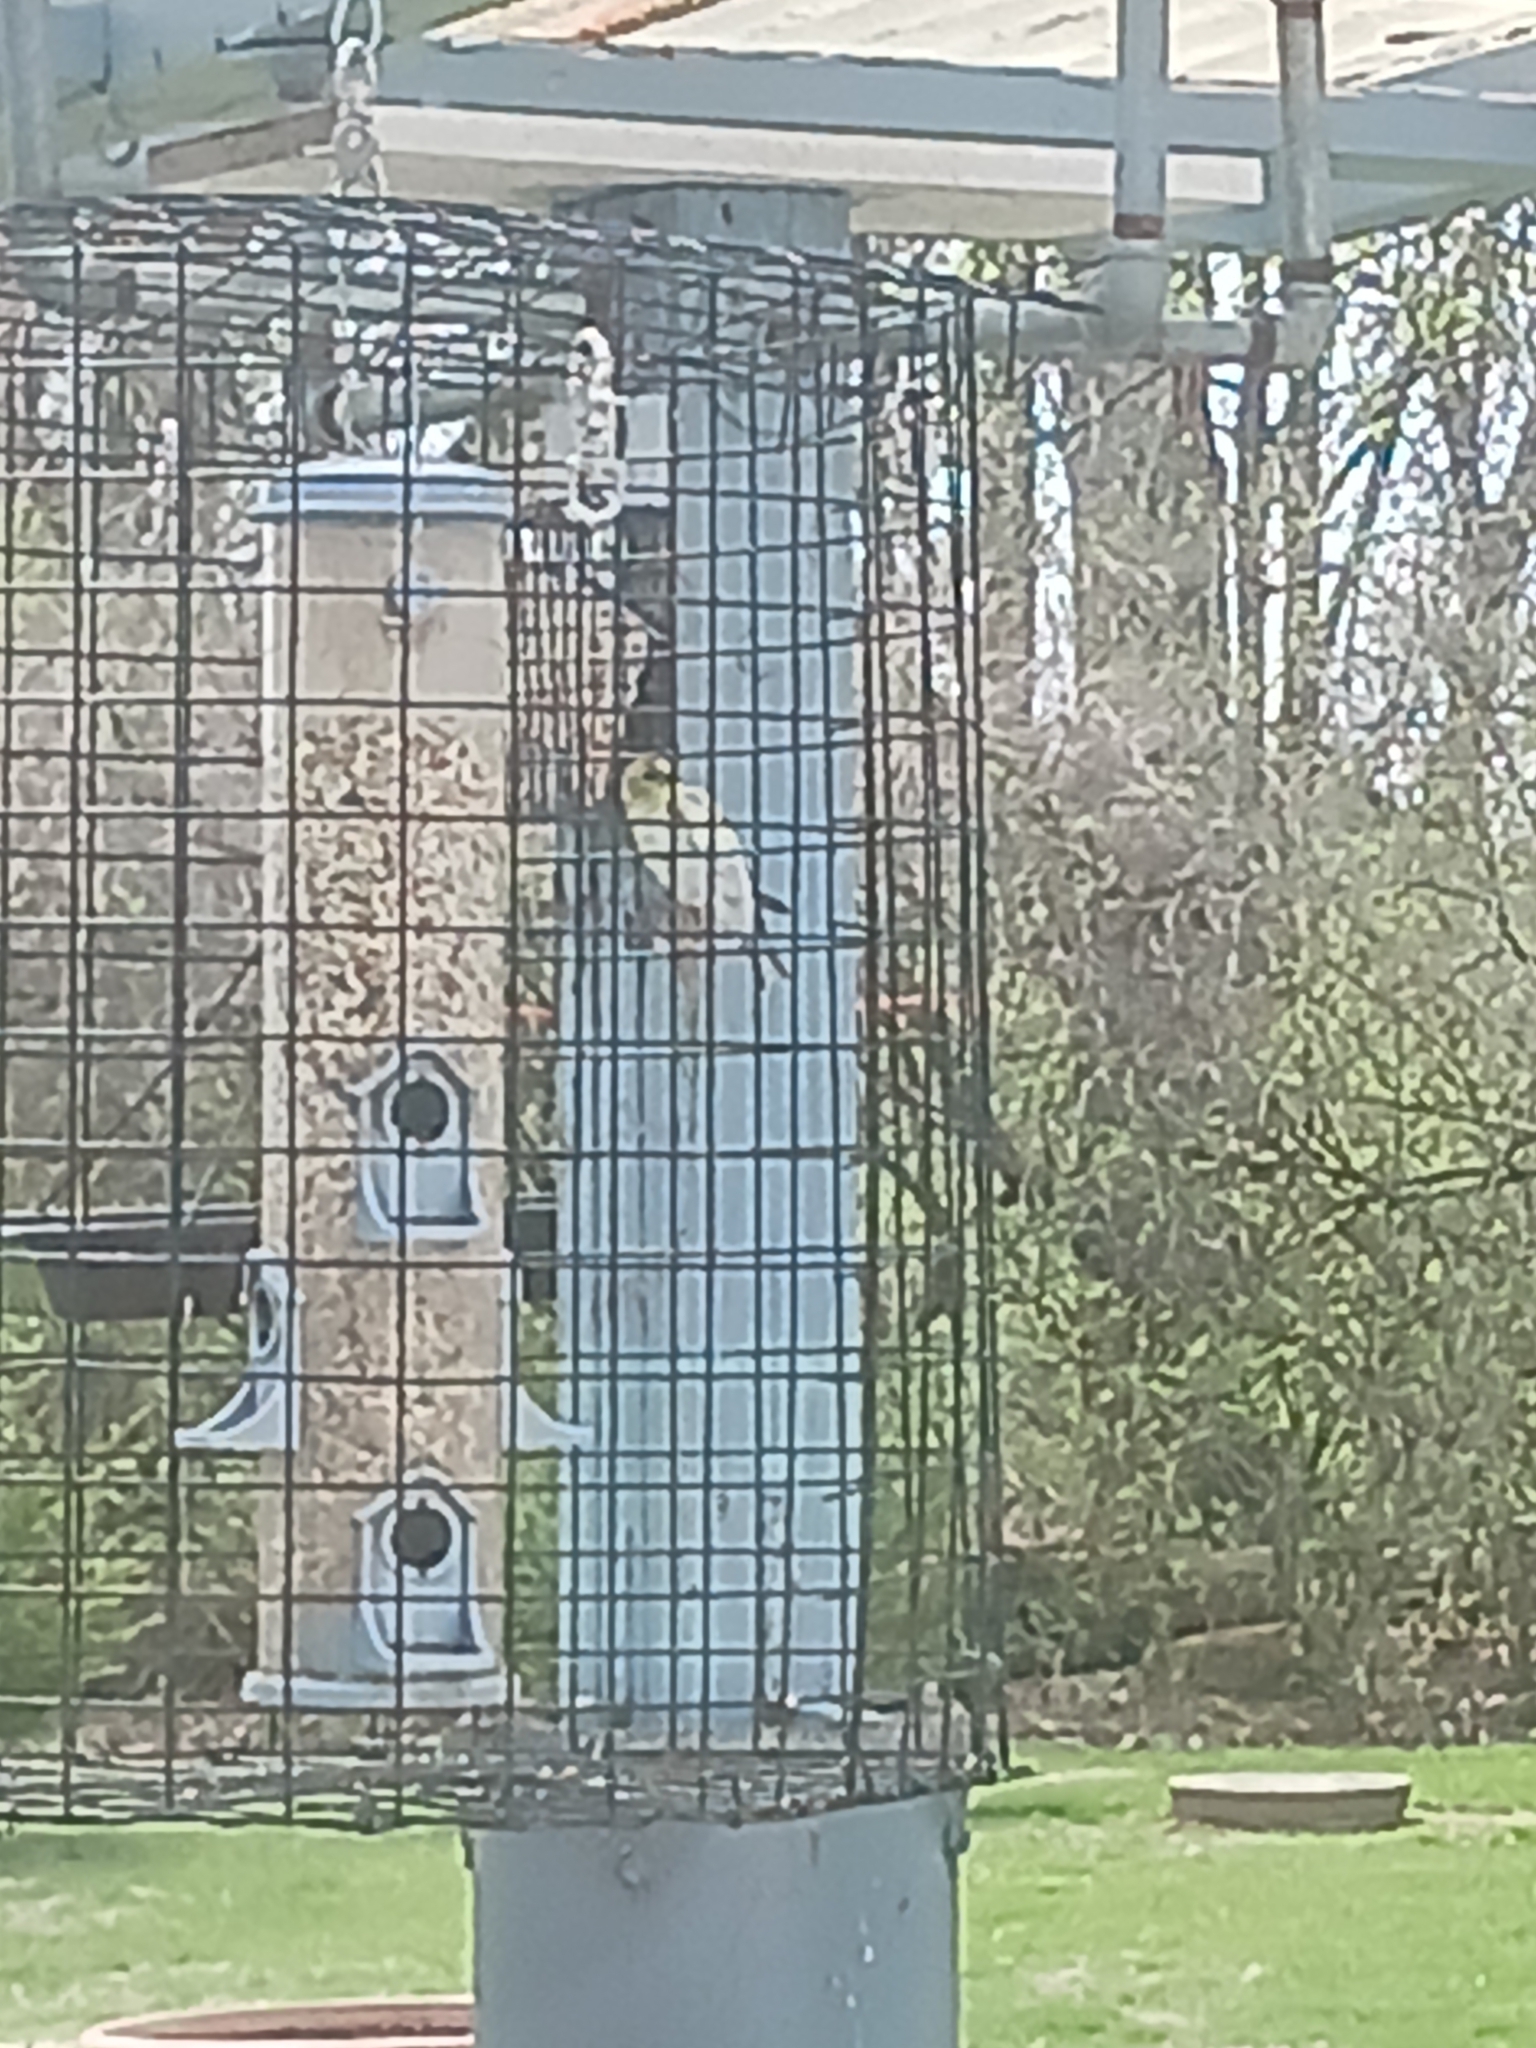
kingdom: Animalia
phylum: Chordata
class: Aves
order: Passeriformes
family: Fringillidae
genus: Spinus
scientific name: Spinus tristis
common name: American goldfinch
